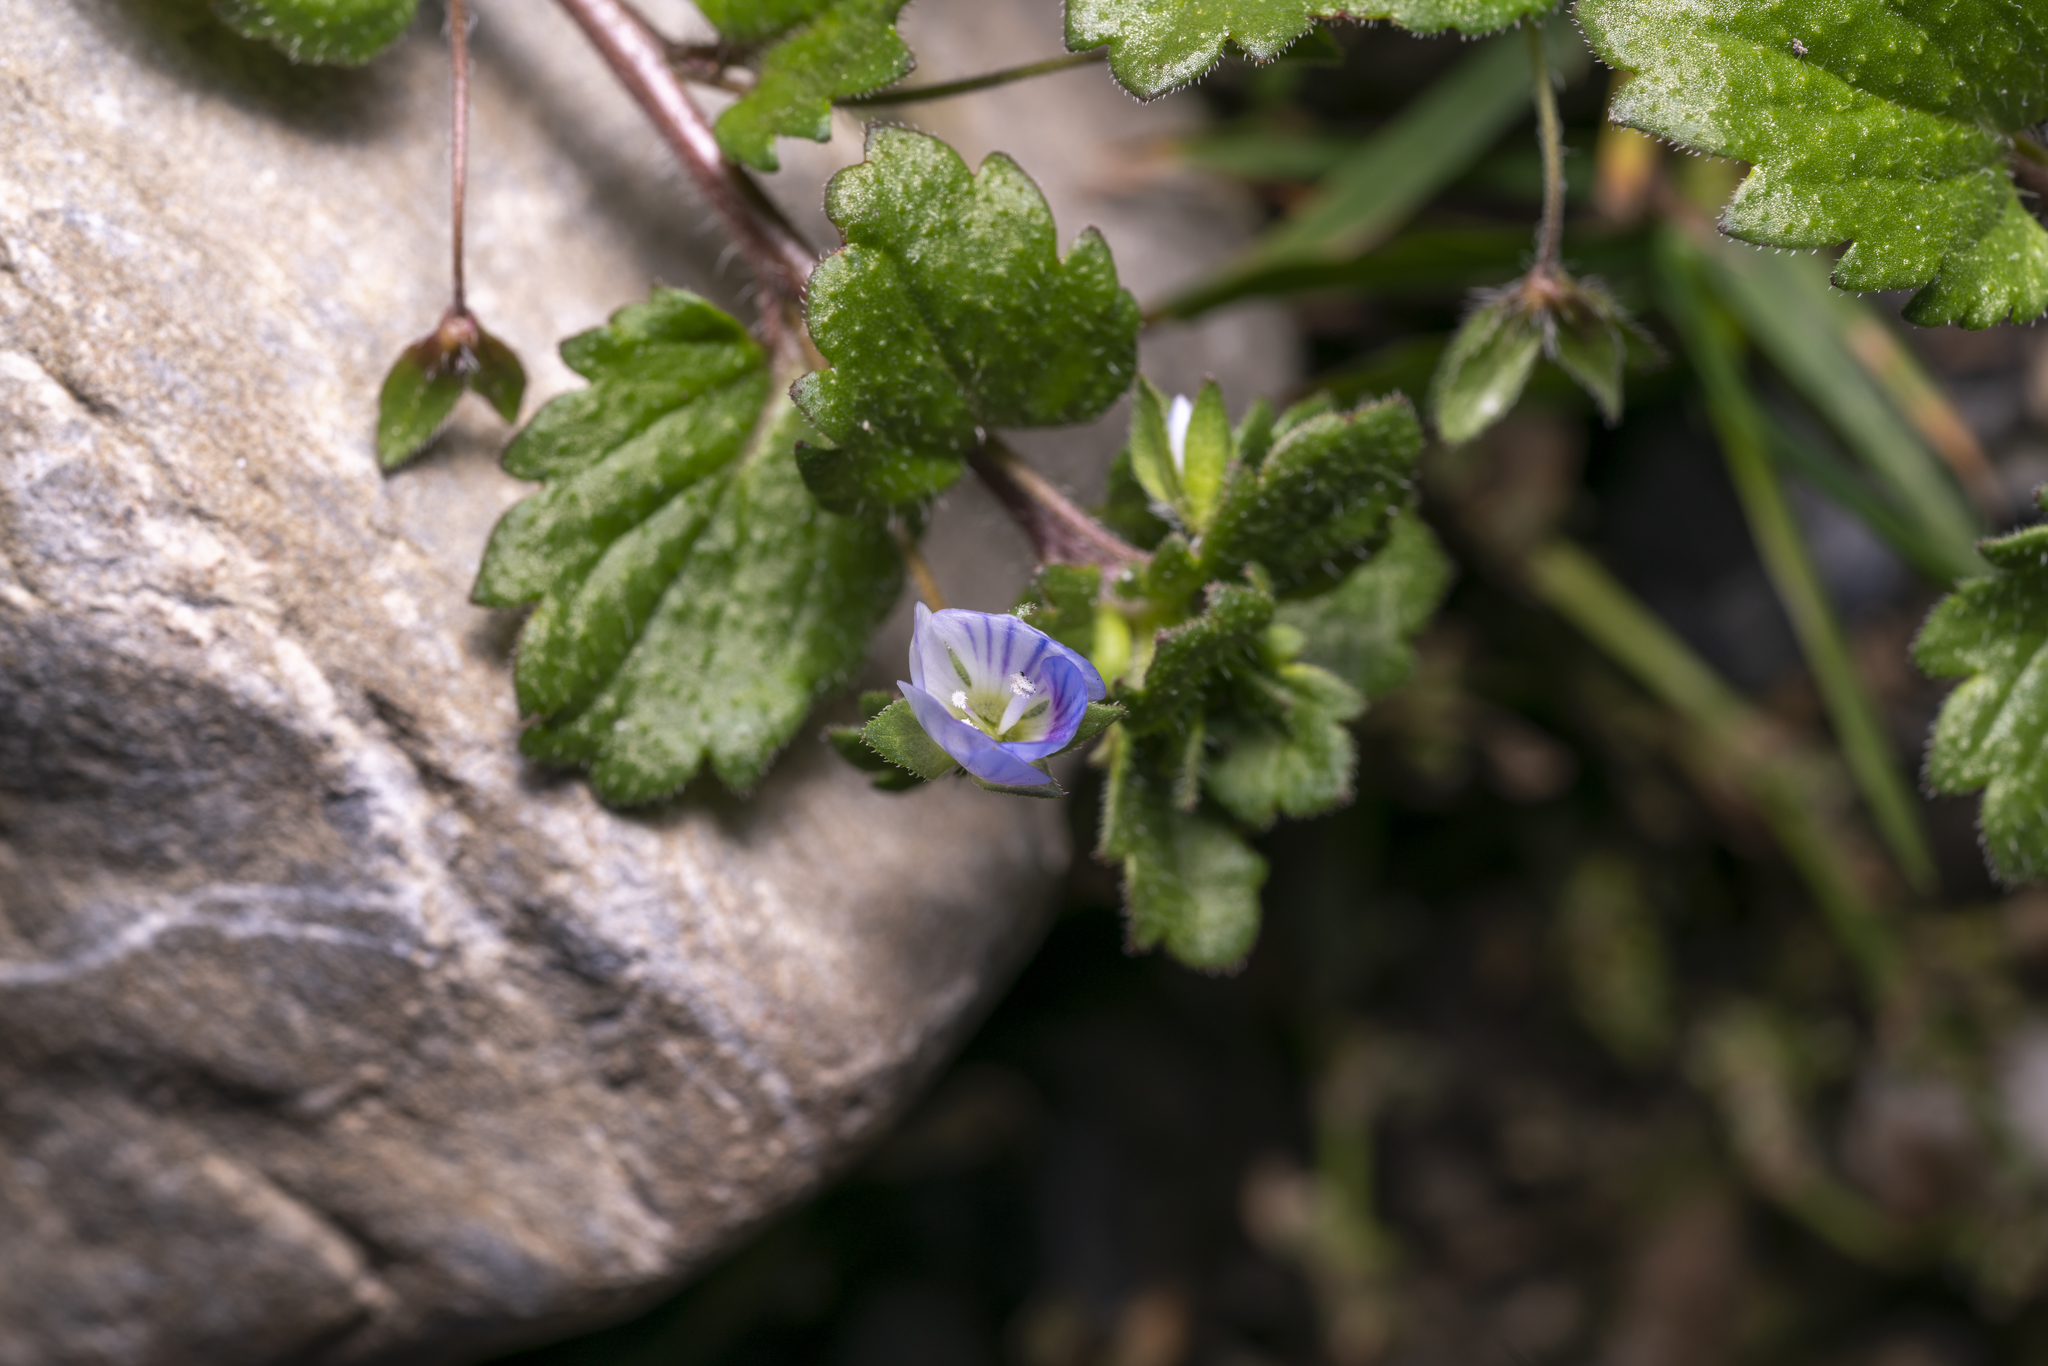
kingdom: Plantae
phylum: Tracheophyta
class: Magnoliopsida
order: Lamiales
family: Plantaginaceae
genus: Veronica
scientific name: Veronica persica
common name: Common field-speedwell
